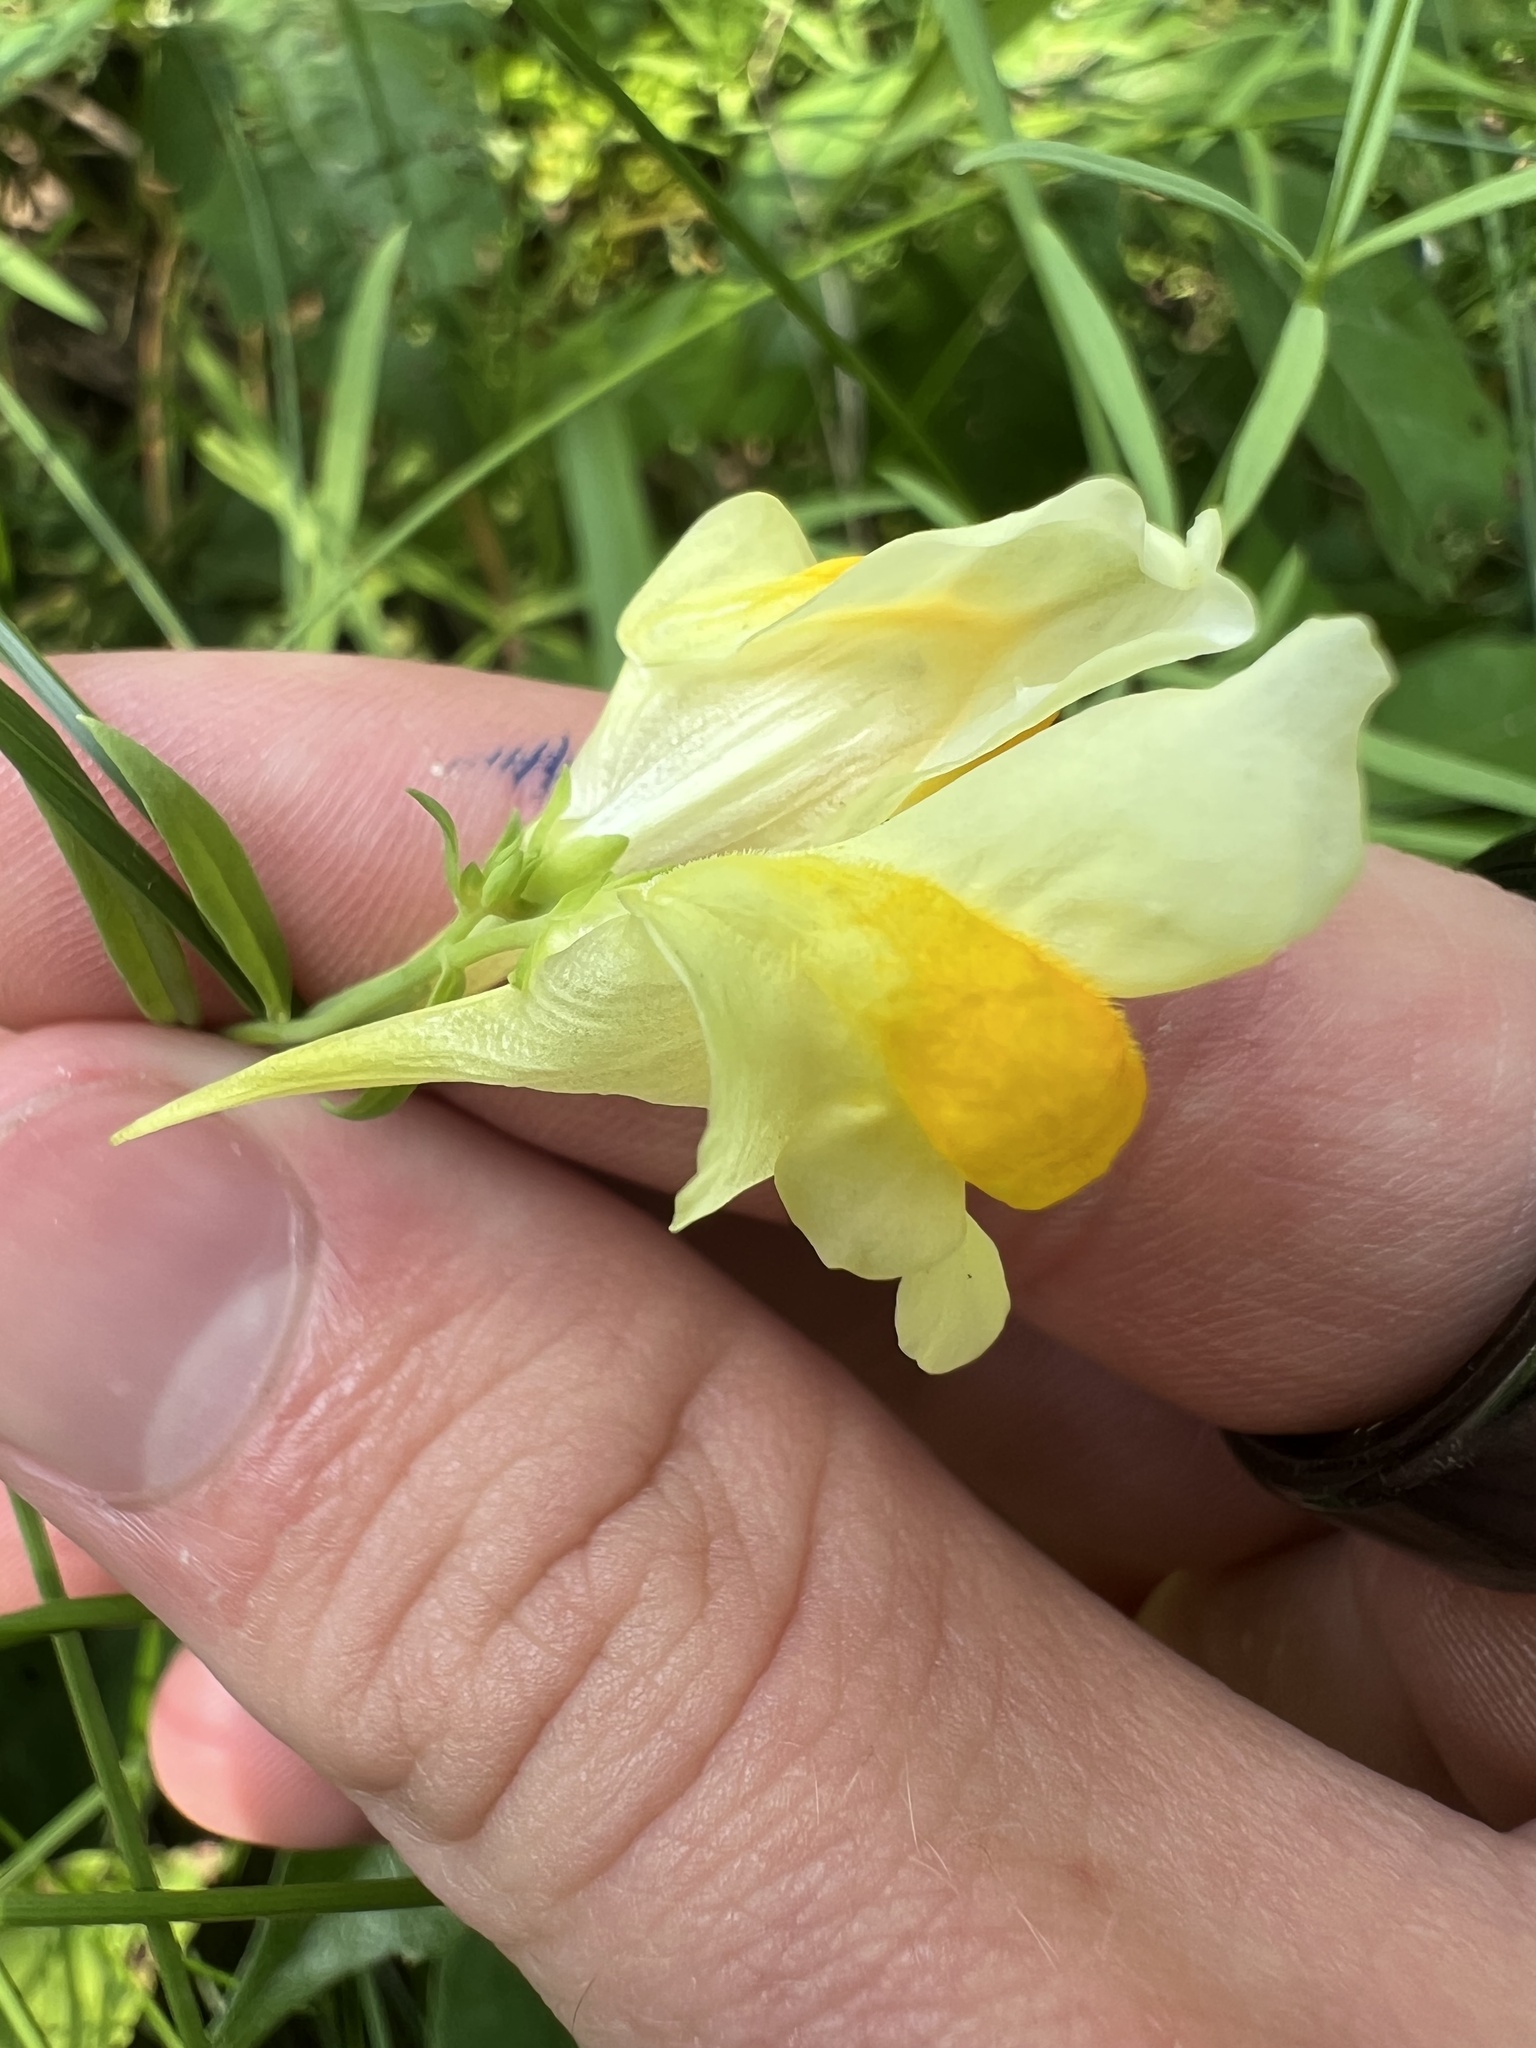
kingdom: Plantae
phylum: Tracheophyta
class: Magnoliopsida
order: Lamiales
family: Plantaginaceae
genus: Linaria
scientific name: Linaria vulgaris
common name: Butter and eggs
